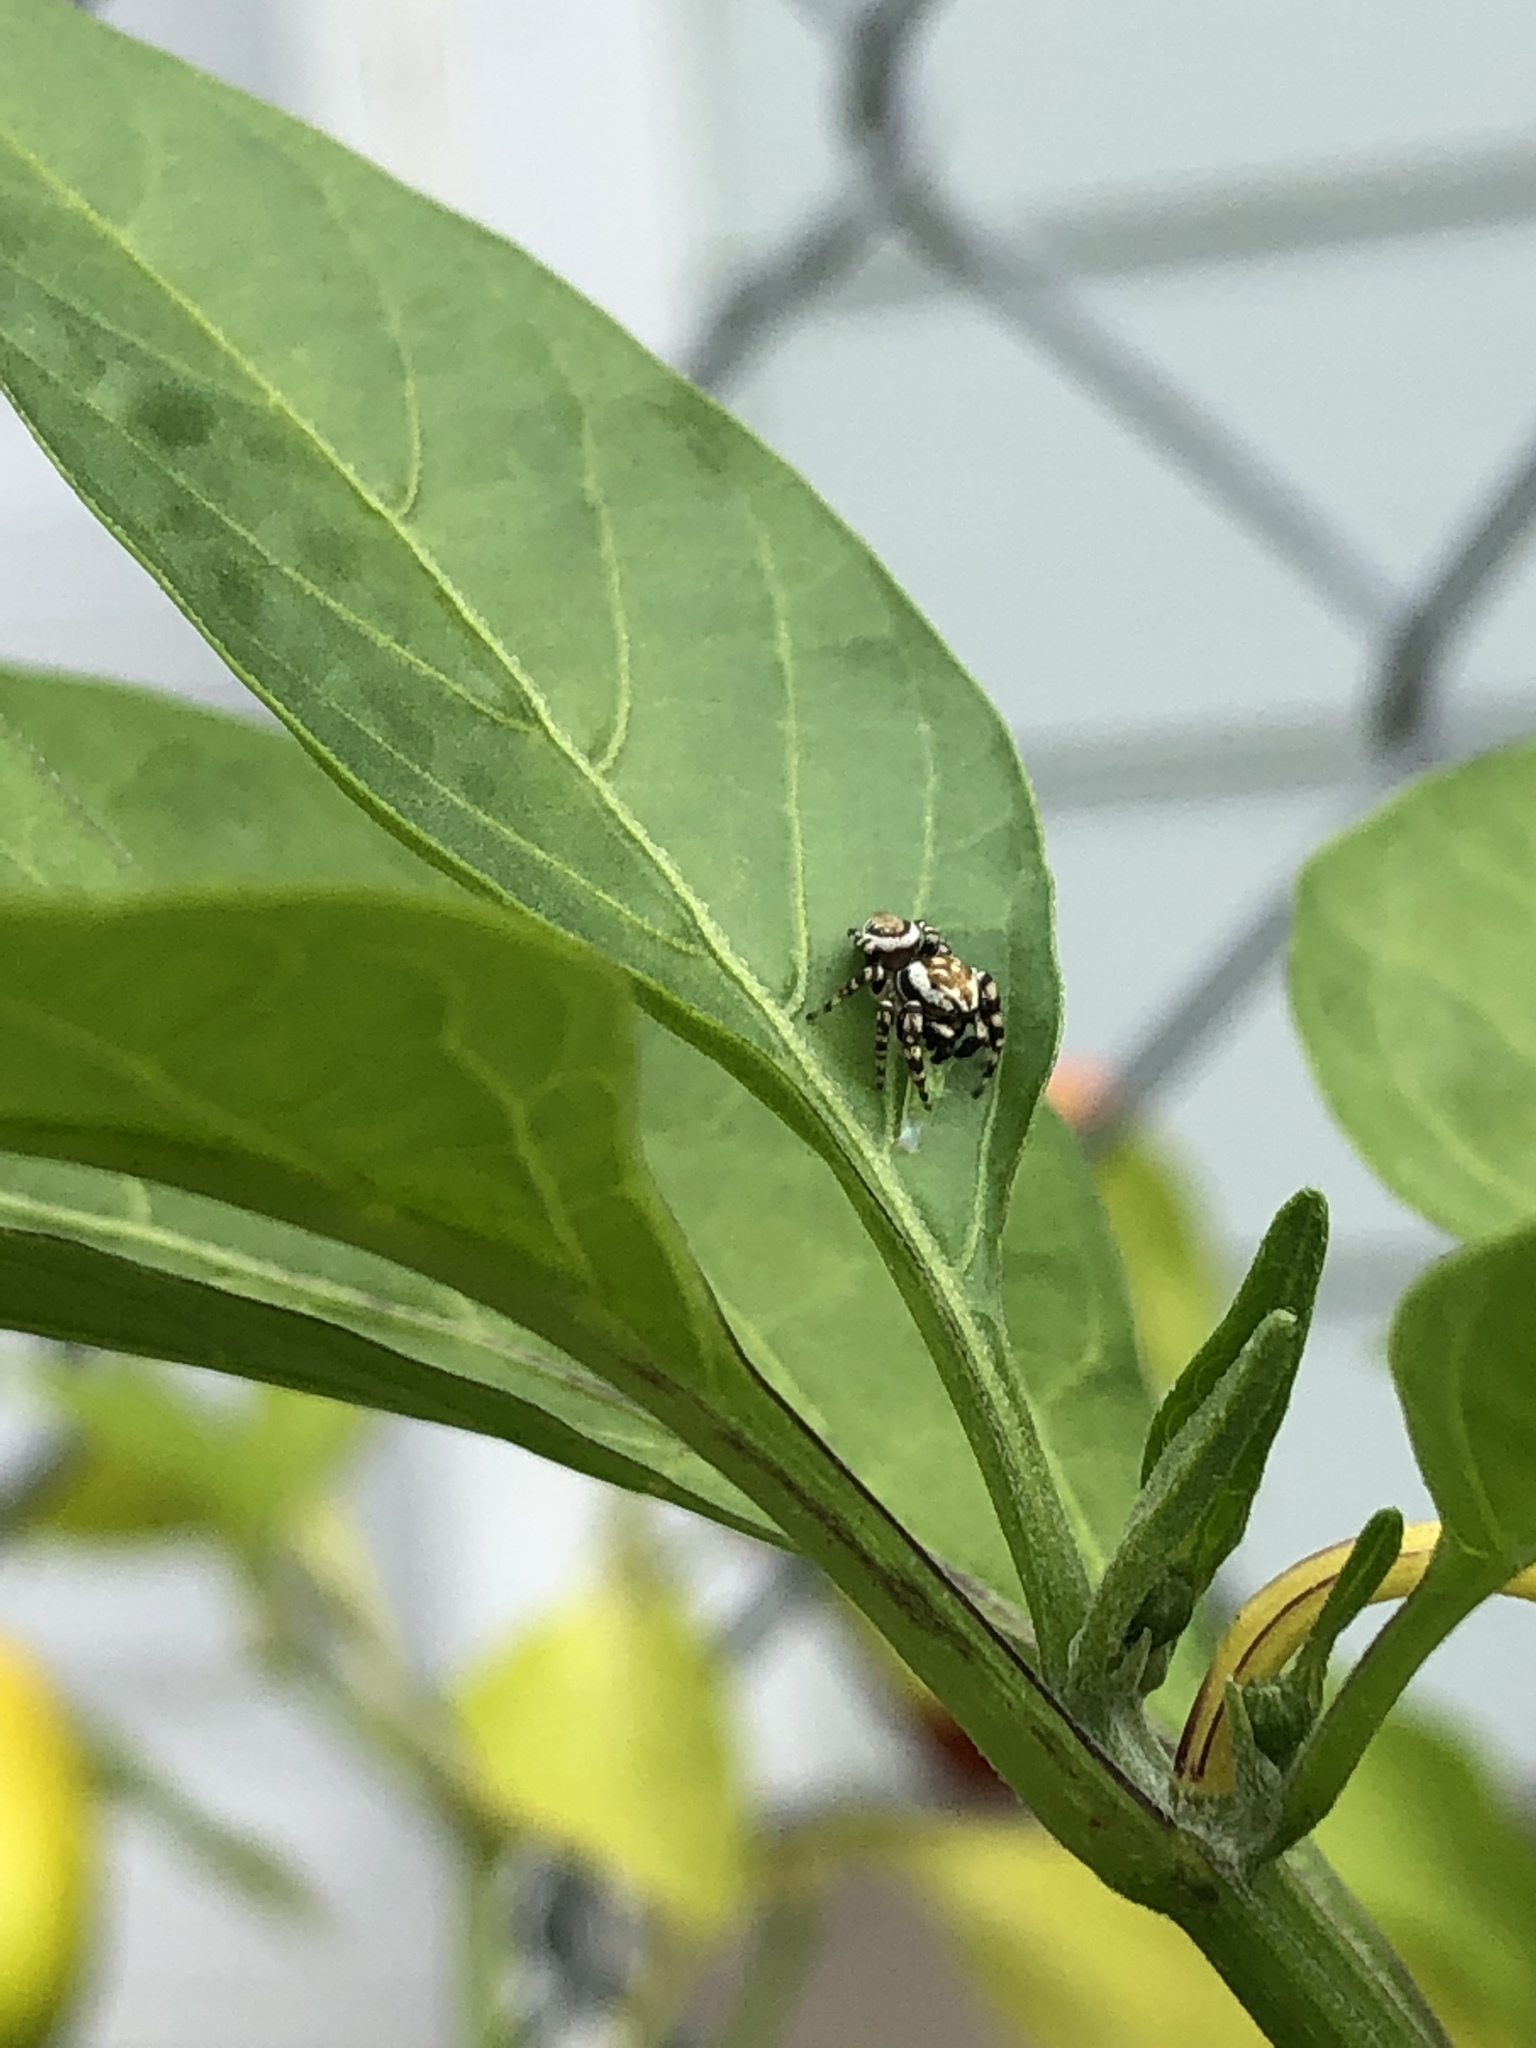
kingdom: Animalia
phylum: Arthropoda
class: Arachnida
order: Araneae
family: Salticidae
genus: Pelegrina
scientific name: Pelegrina galathea
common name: Jumping spiders
